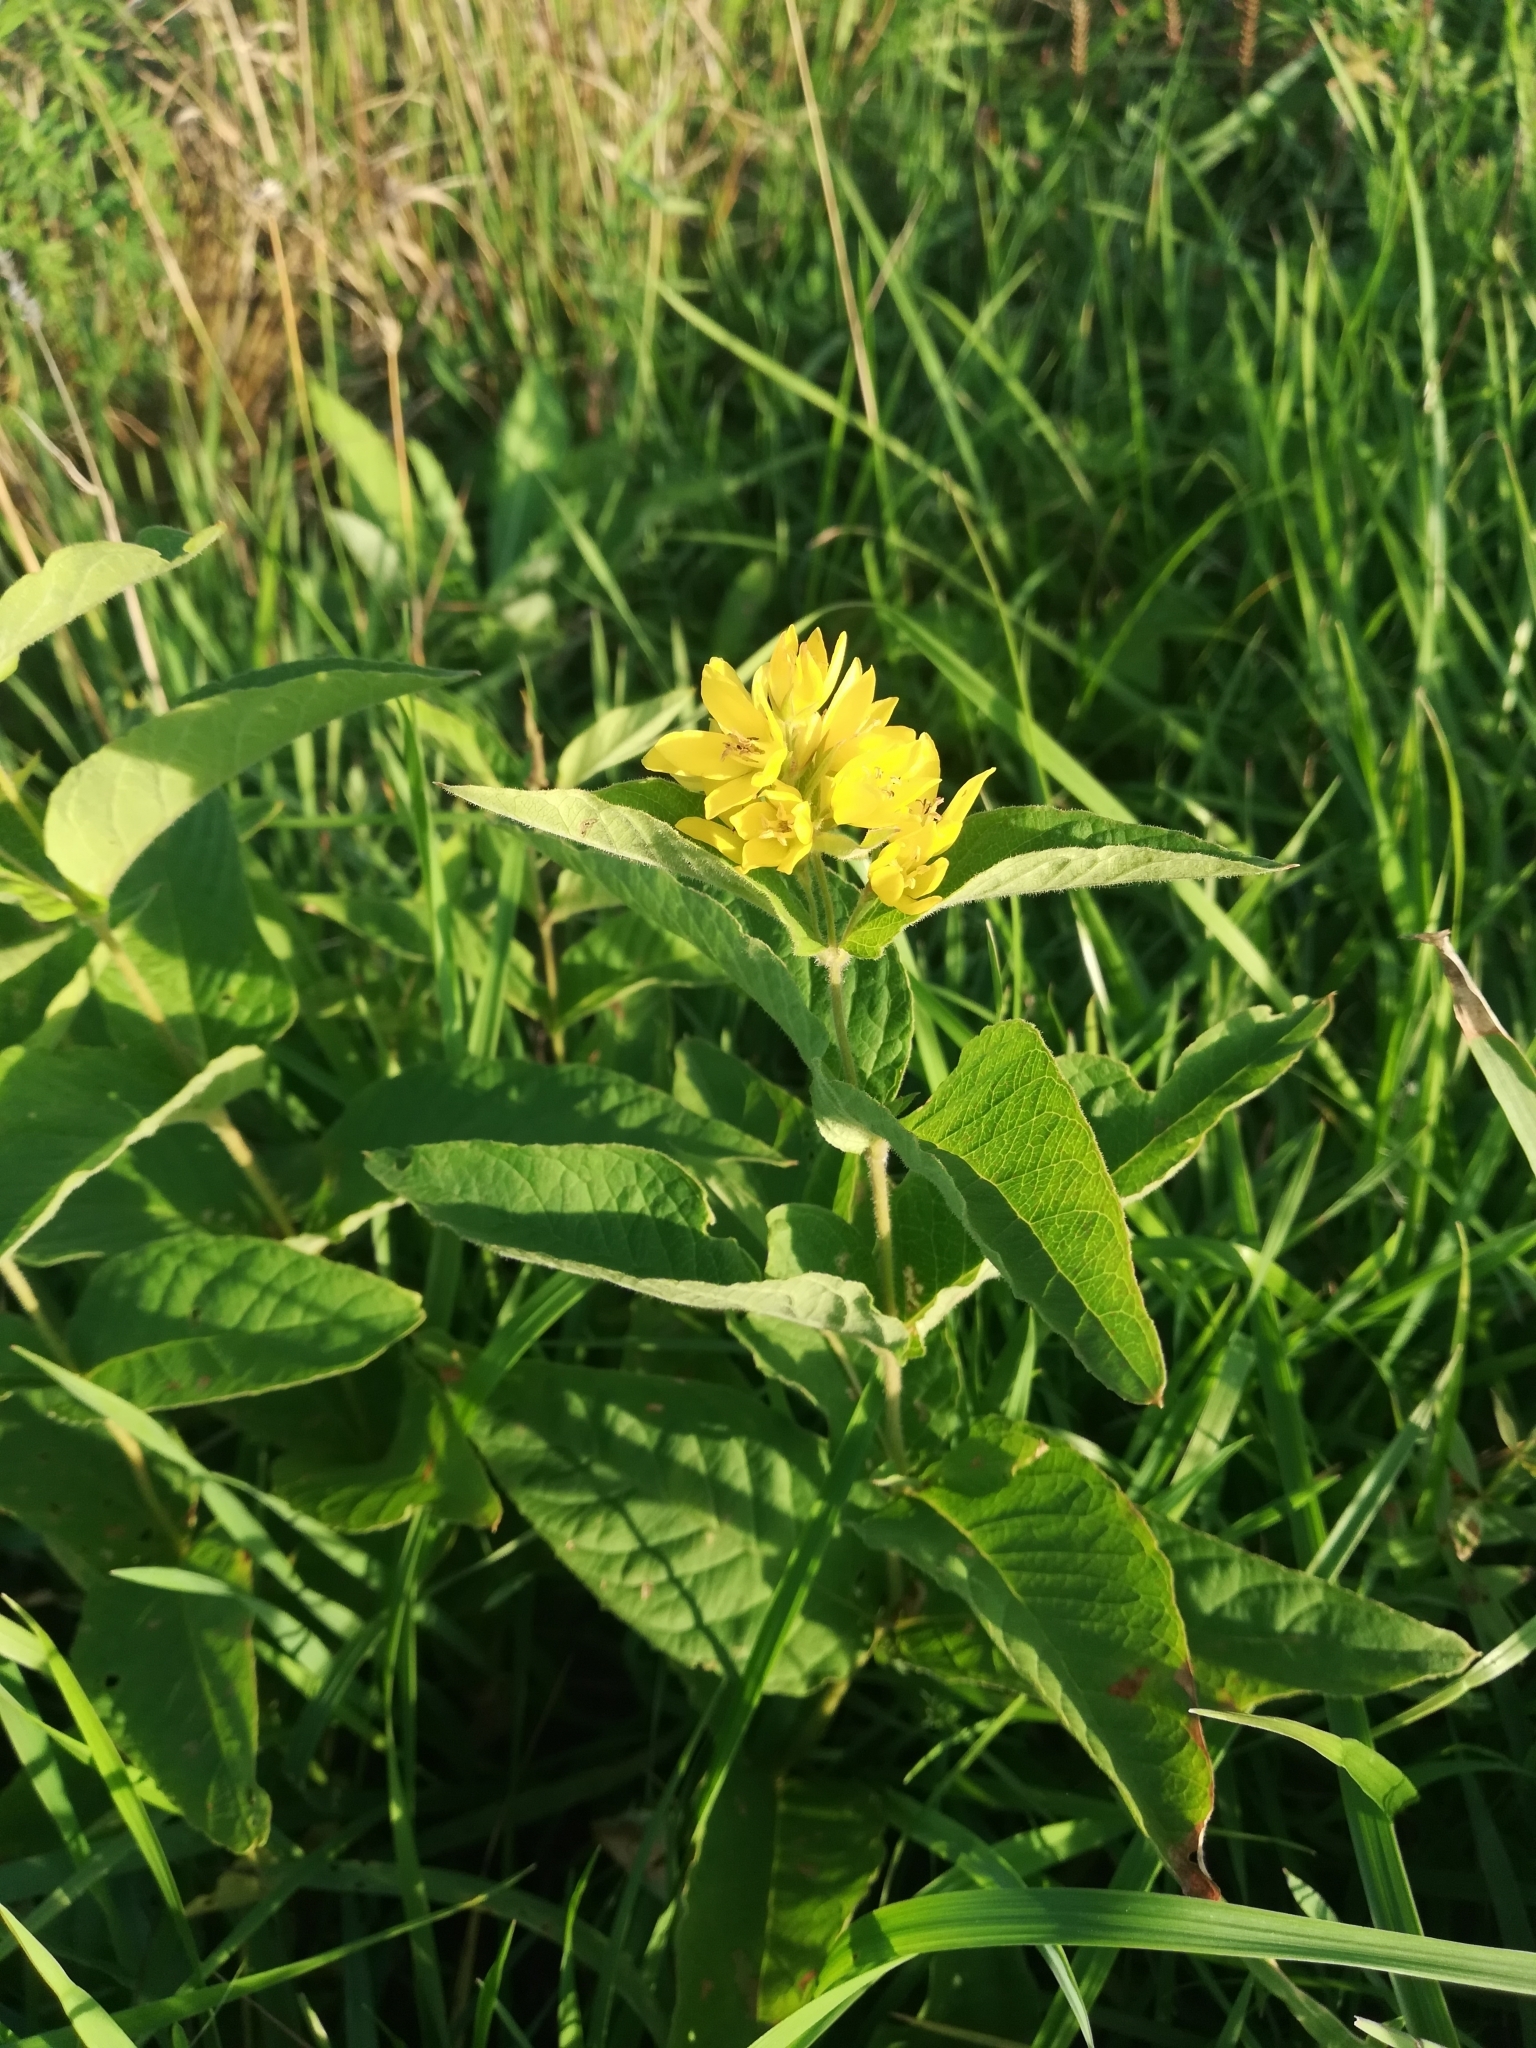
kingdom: Plantae
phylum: Tracheophyta
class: Magnoliopsida
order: Ericales
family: Primulaceae
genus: Lysimachia
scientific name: Lysimachia vulgaris
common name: Yellow loosestrife
